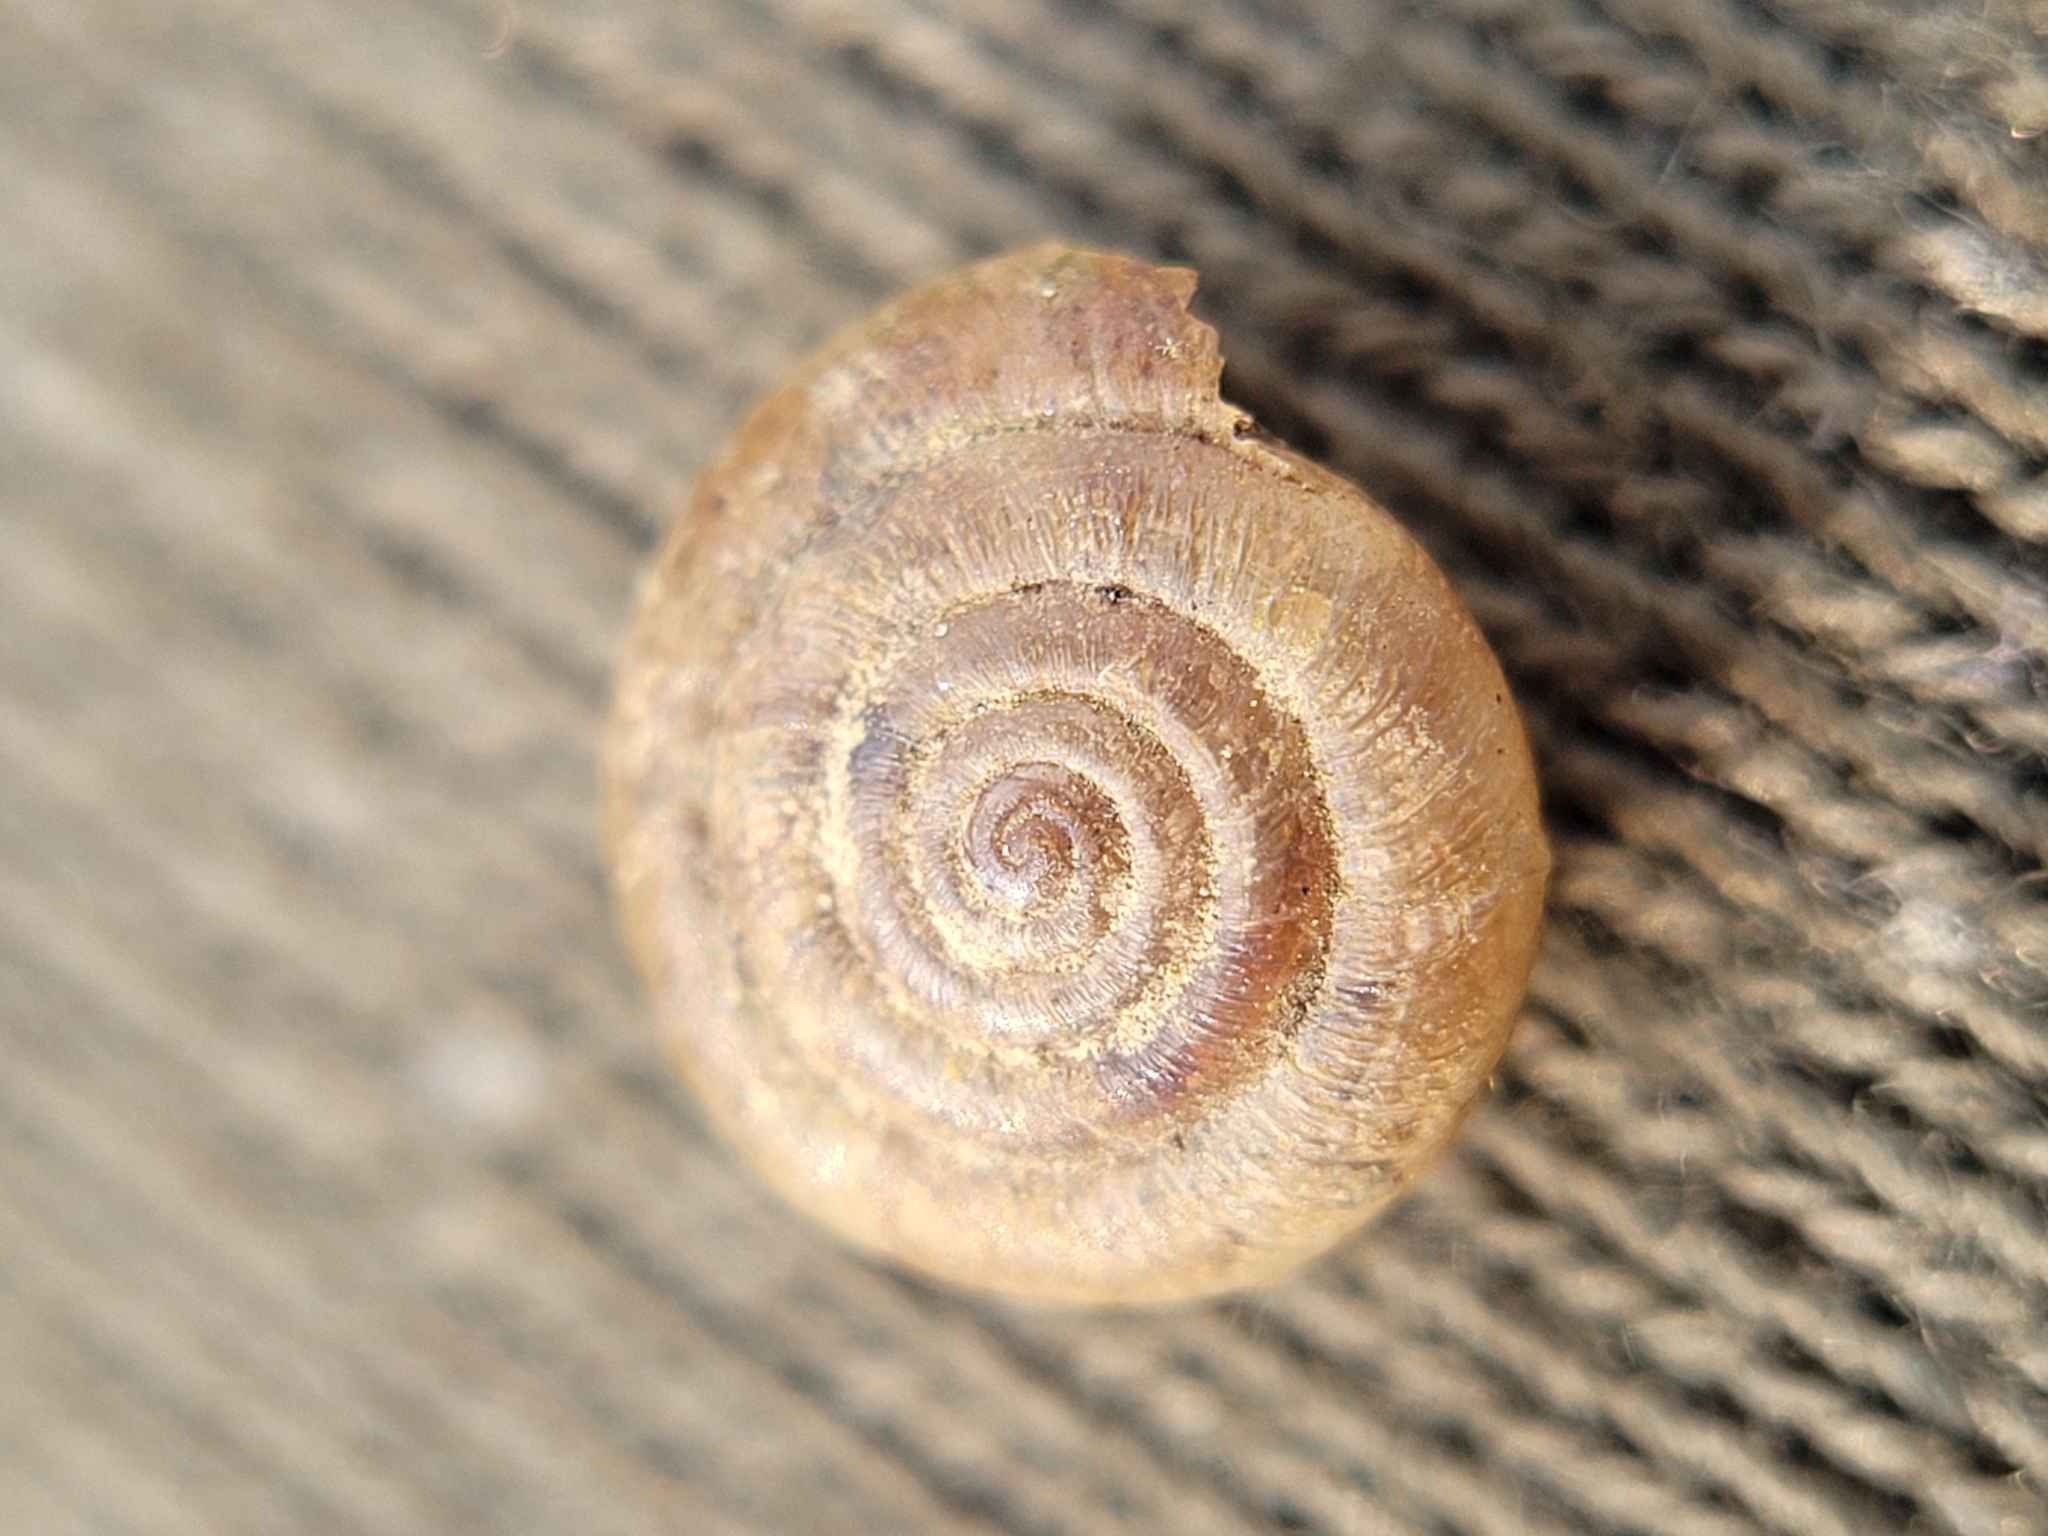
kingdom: Animalia
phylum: Mollusca
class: Gastropoda
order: Stylommatophora
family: Hygromiidae
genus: Trochulus
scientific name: Trochulus hispidus
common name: Hairy snail
